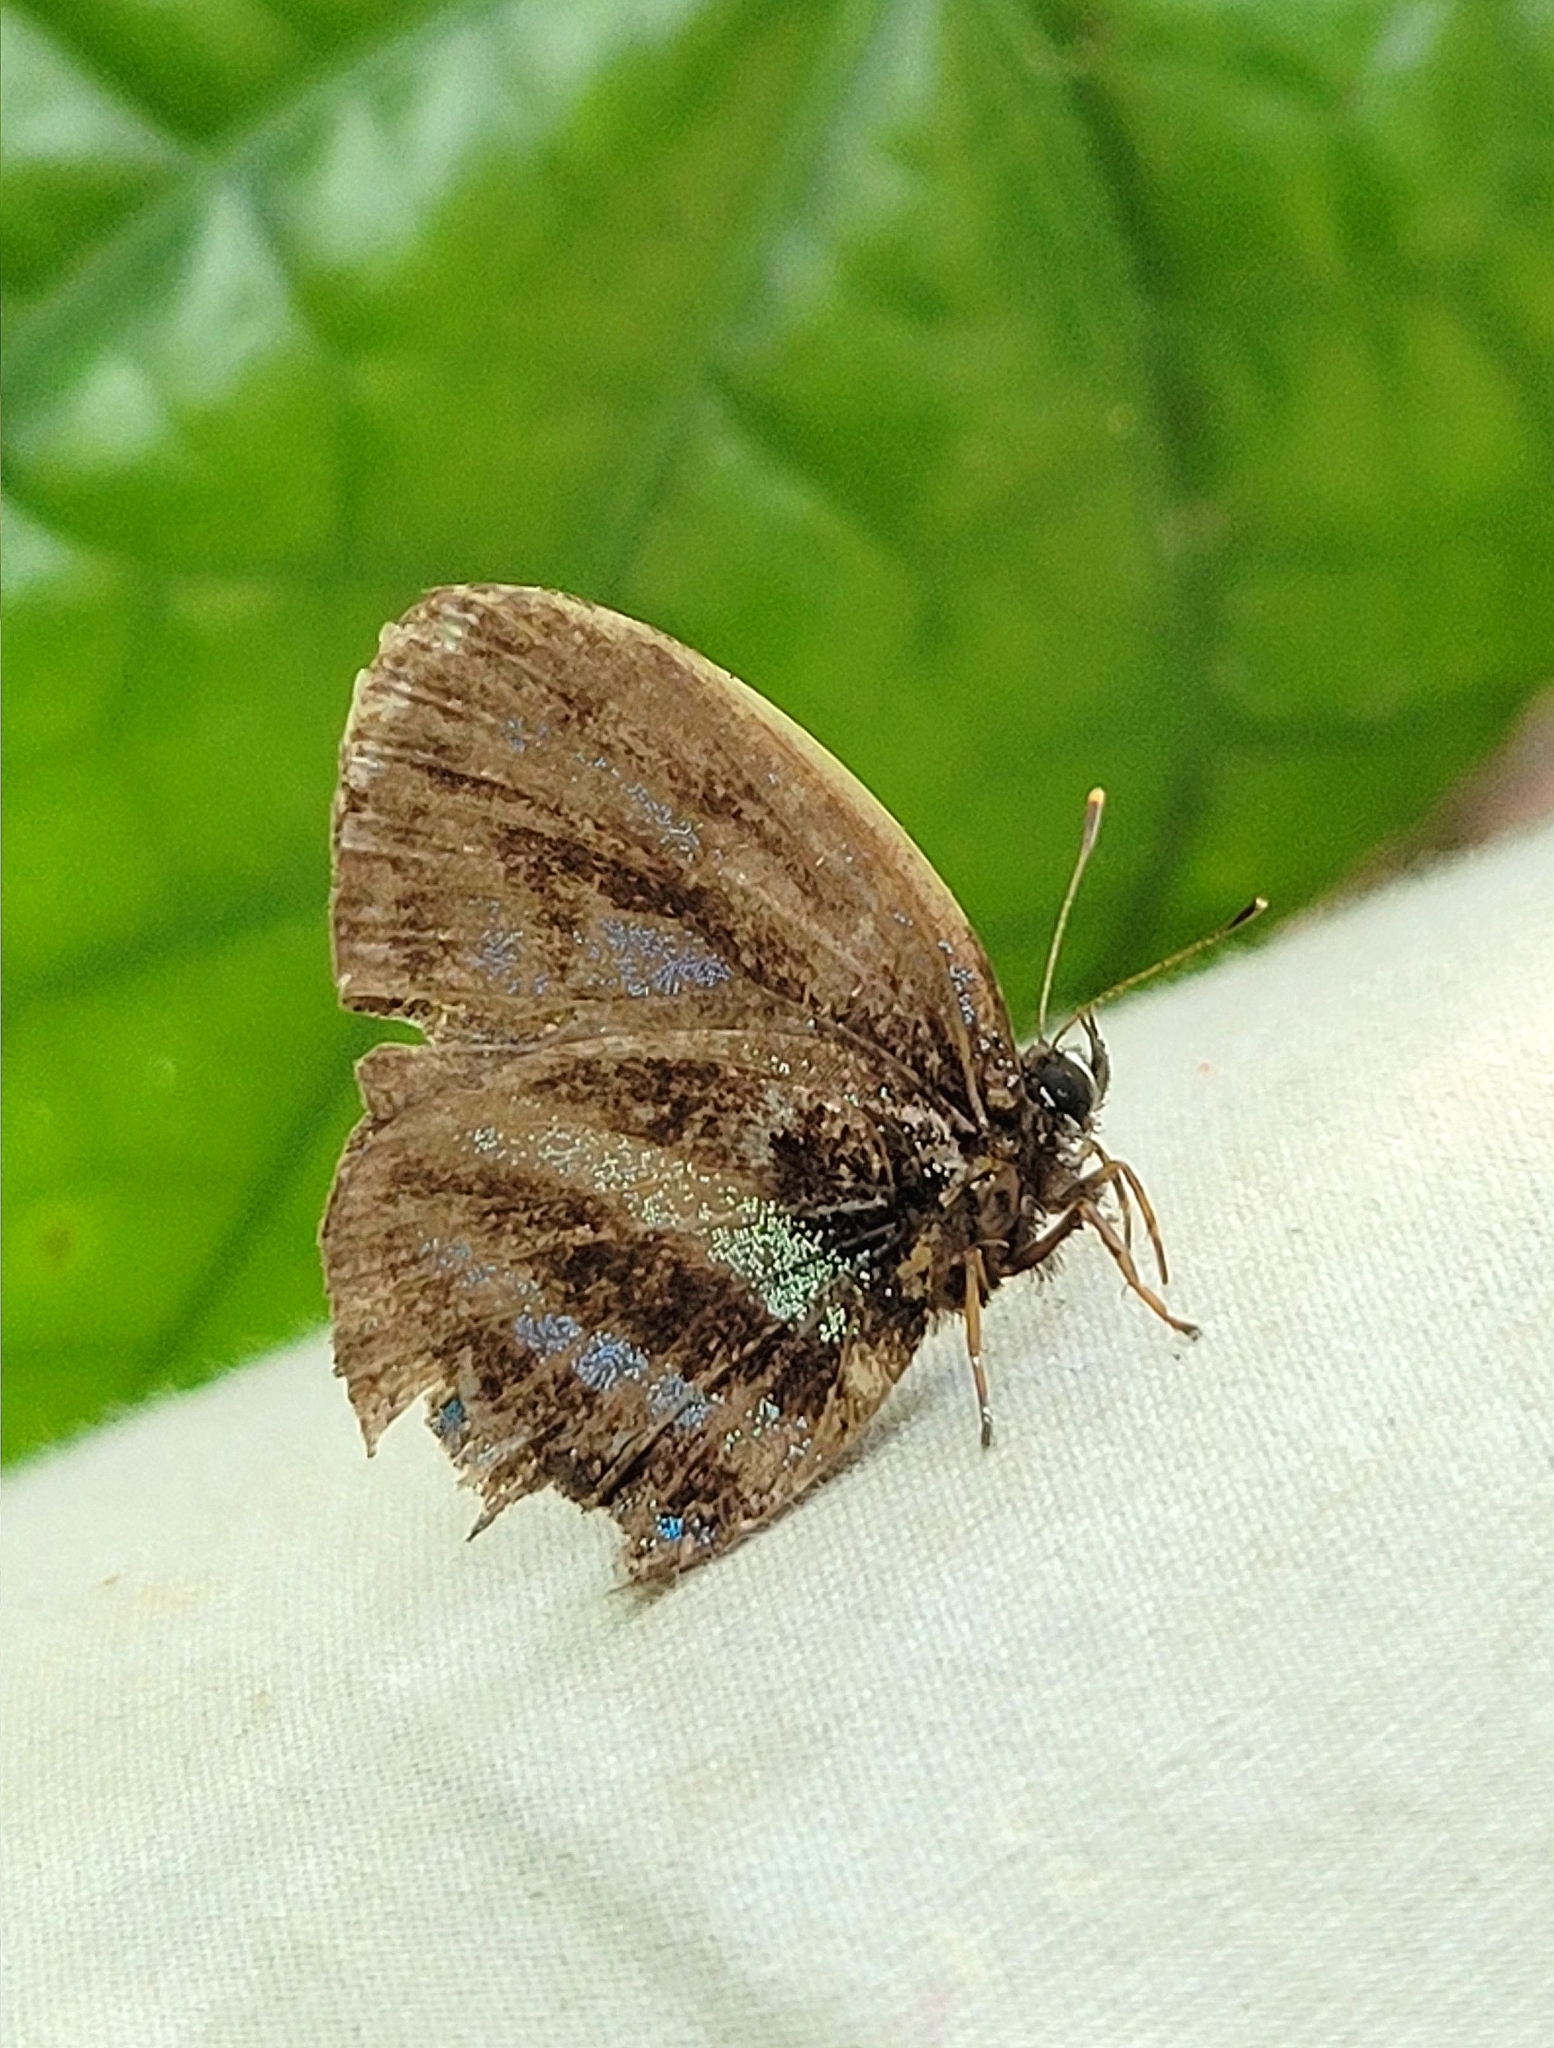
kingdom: Animalia
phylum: Arthropoda
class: Insecta
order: Lepidoptera
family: Lycaenidae
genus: Thestius
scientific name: Thestius
